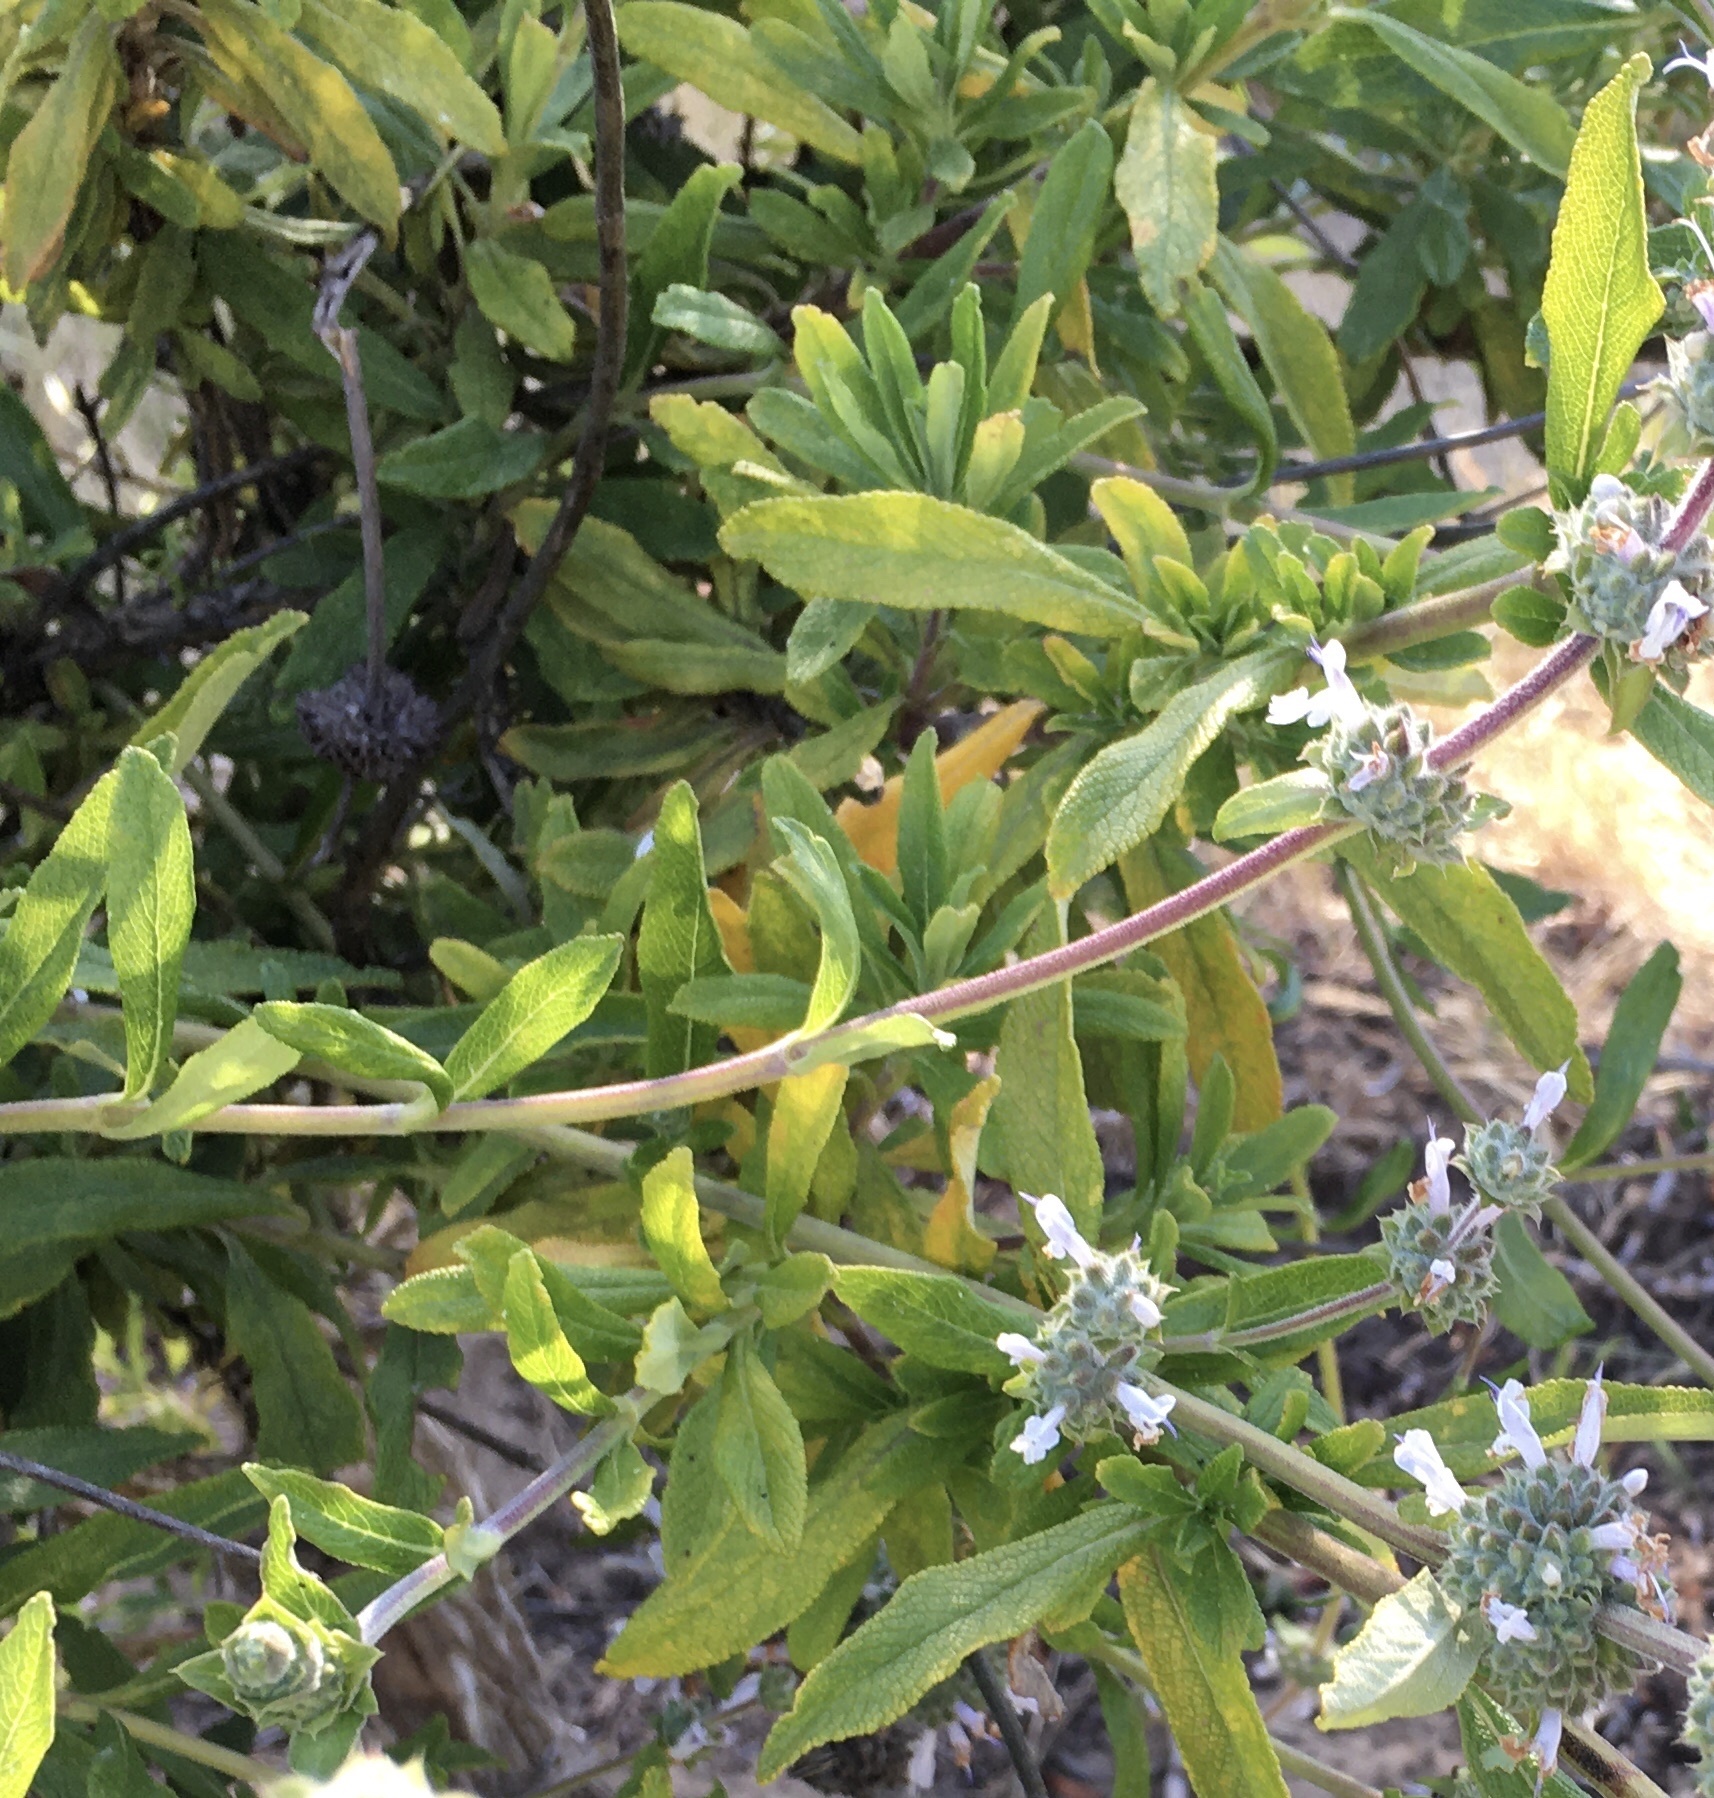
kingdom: Plantae
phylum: Tracheophyta
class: Magnoliopsida
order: Lamiales
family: Lamiaceae
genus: Salvia
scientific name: Salvia mellifera
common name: Black sage
